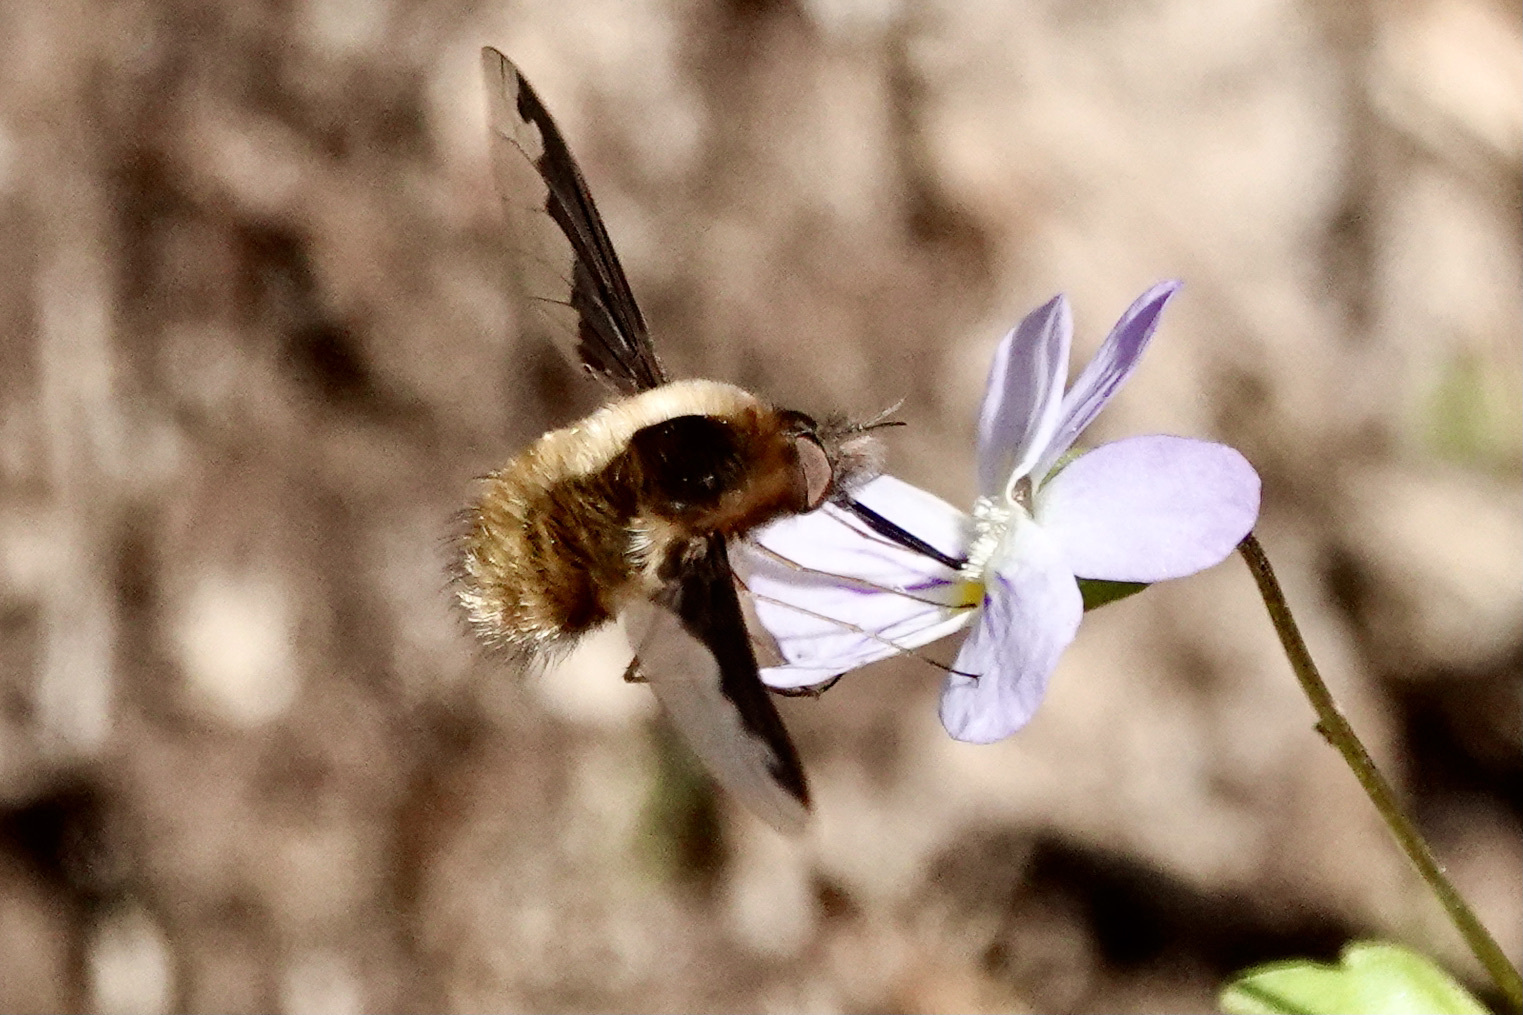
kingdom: Animalia
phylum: Arthropoda
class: Insecta
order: Diptera
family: Bombyliidae
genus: Bombylius
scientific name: Bombylius major
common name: Bee fly
